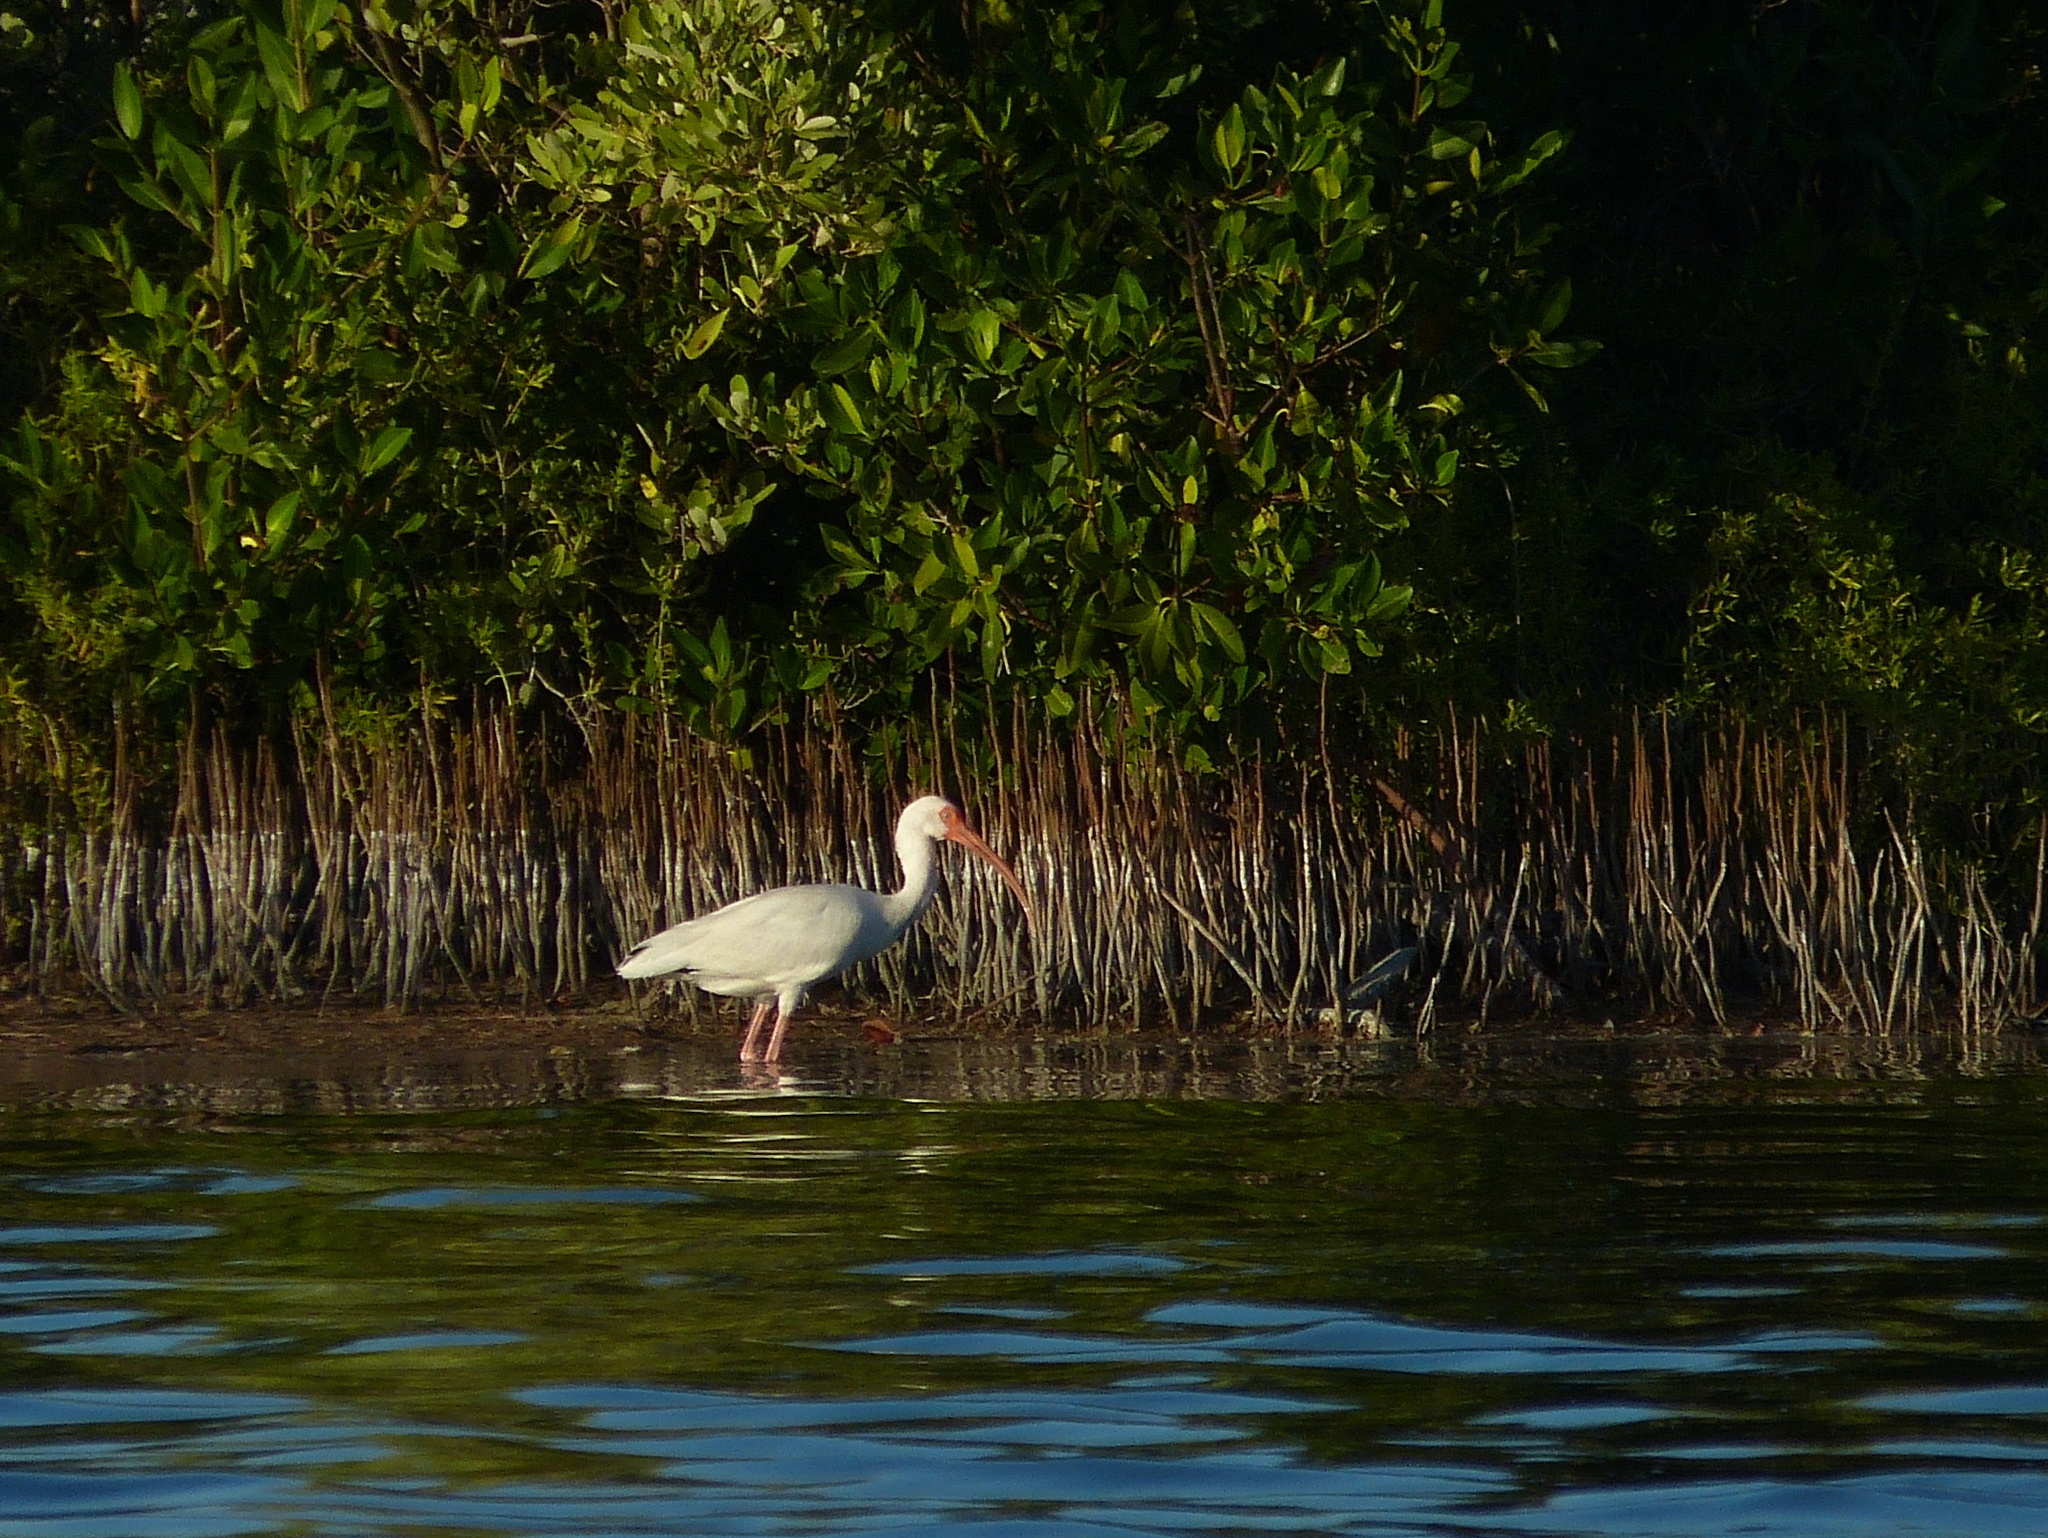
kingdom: Animalia
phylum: Chordata
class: Aves
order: Pelecaniformes
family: Threskiornithidae
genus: Eudocimus
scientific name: Eudocimus albus
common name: White ibis
